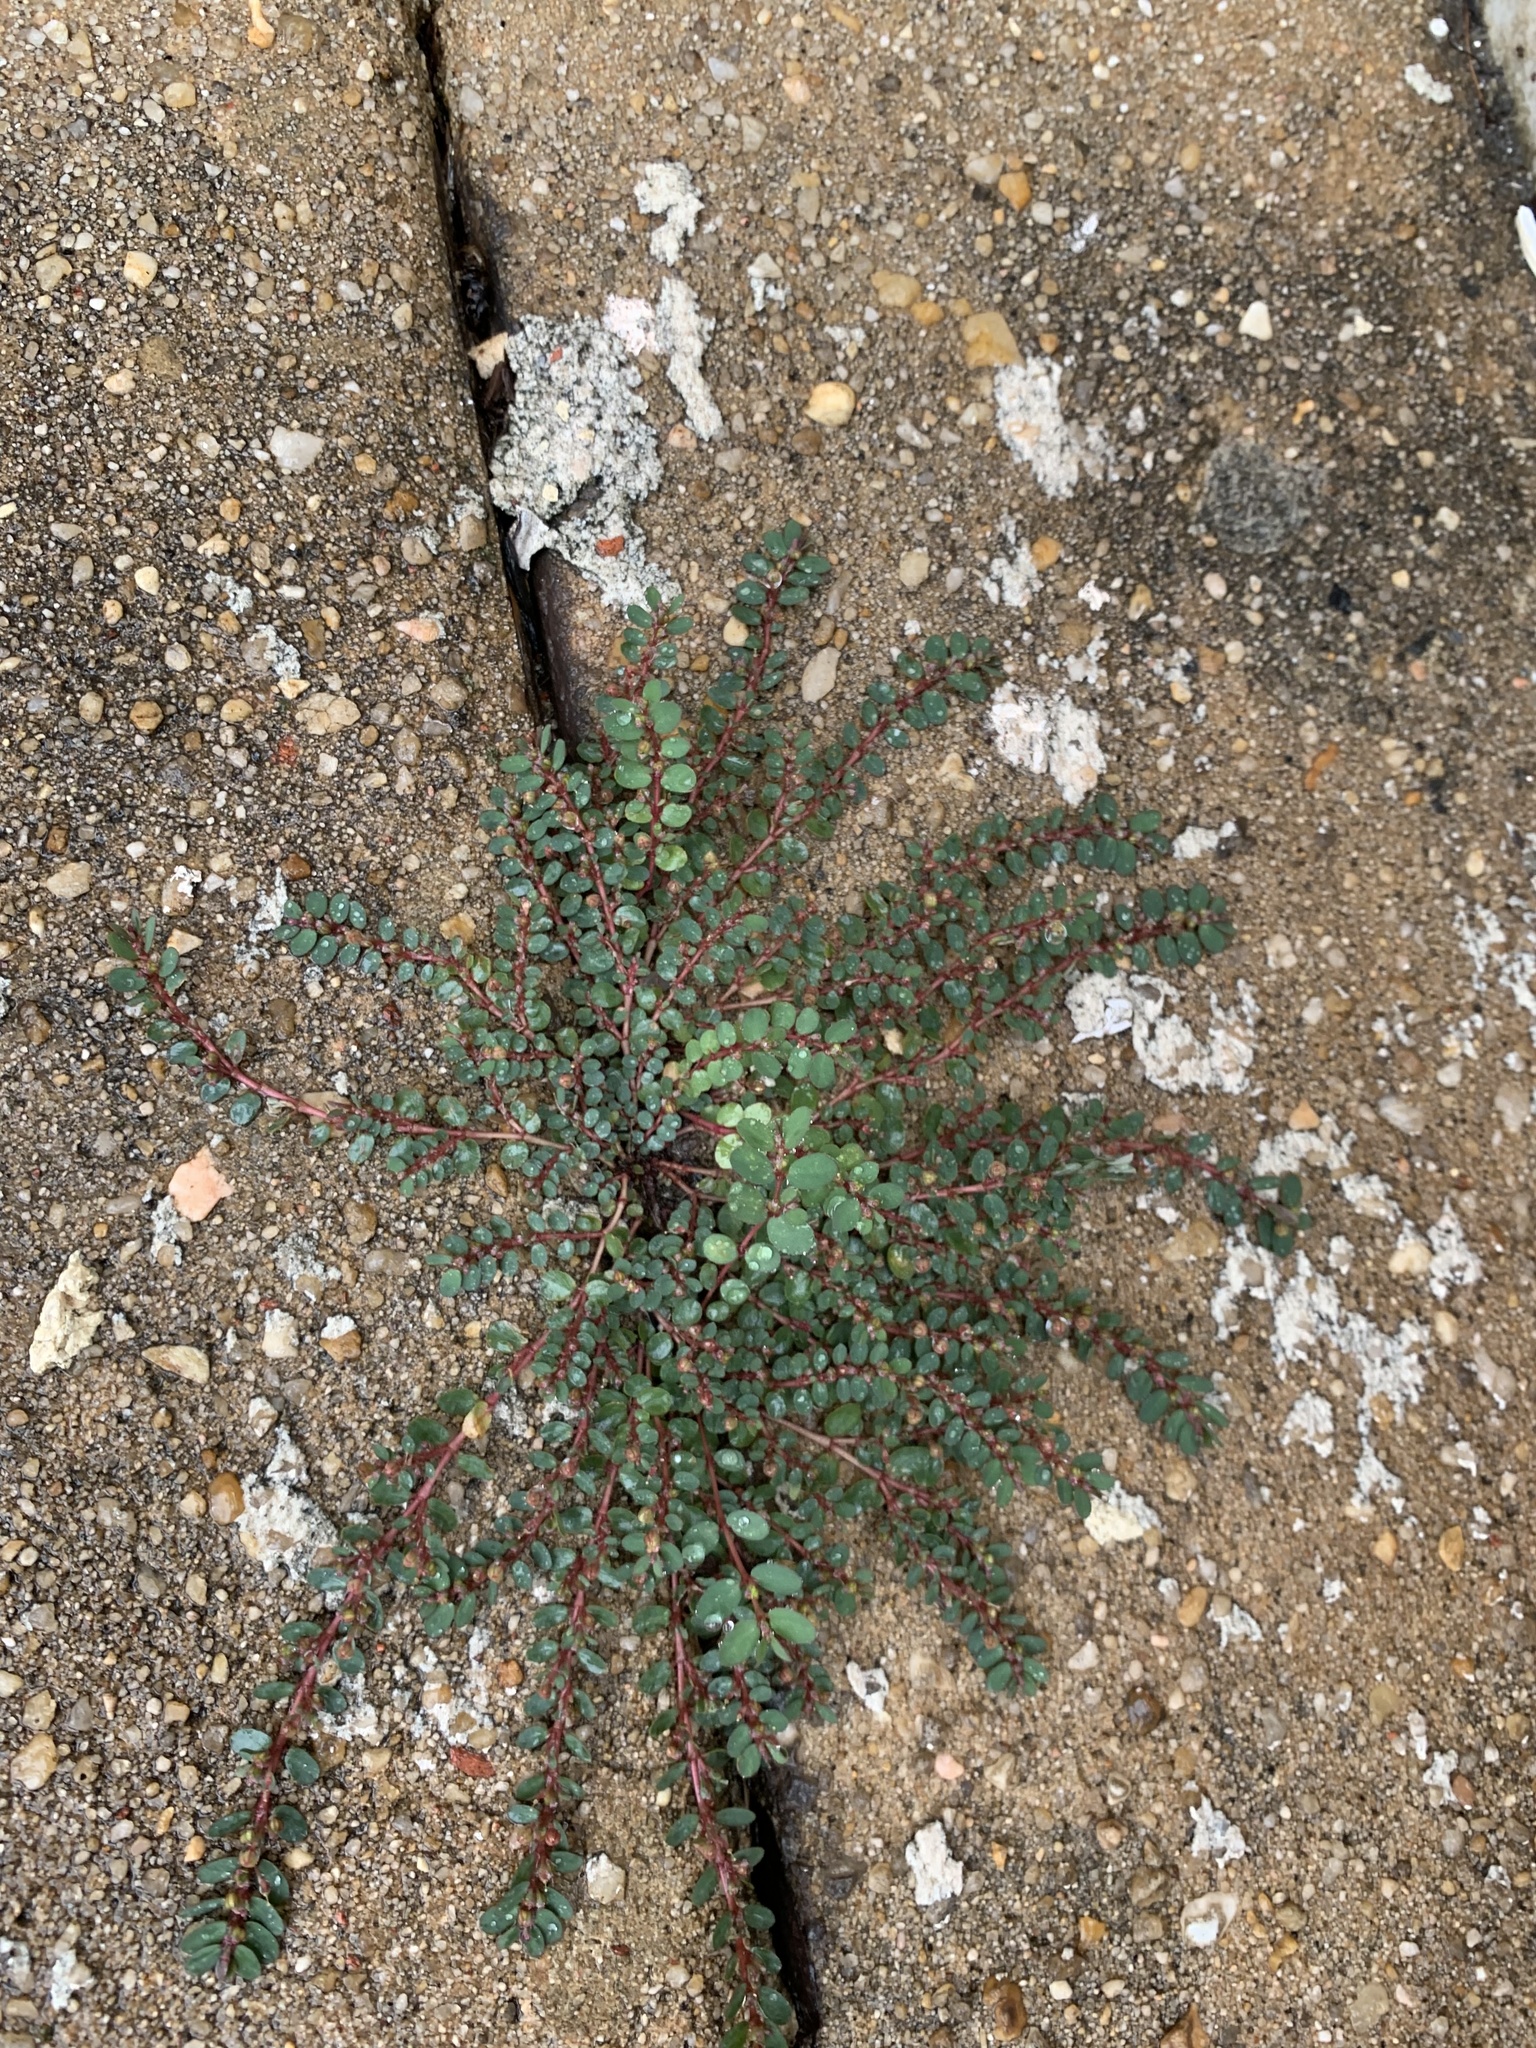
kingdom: Plantae
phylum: Tracheophyta
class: Magnoliopsida
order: Malpighiales
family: Euphorbiaceae
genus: Euphorbia
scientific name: Euphorbia prostrata
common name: Prostrate sandmat
